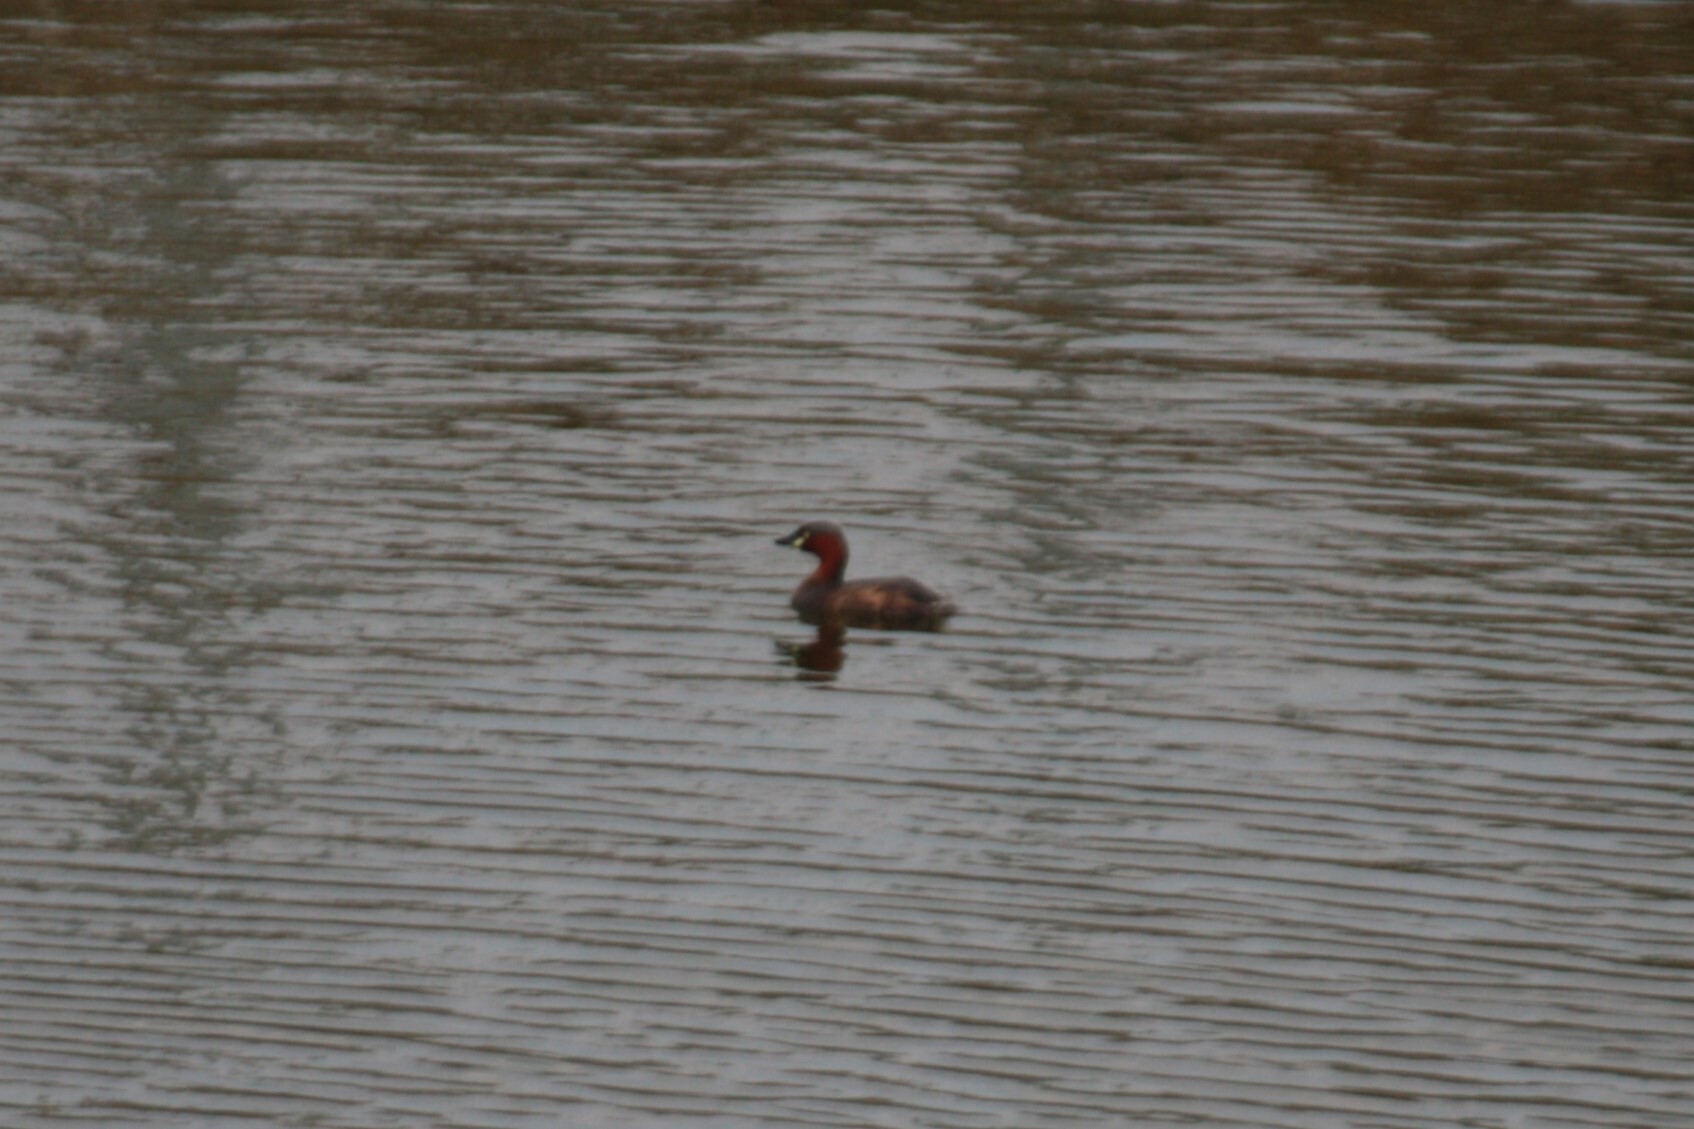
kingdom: Animalia
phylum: Chordata
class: Aves
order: Podicipediformes
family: Podicipedidae
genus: Tachybaptus
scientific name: Tachybaptus ruficollis
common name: Little grebe
